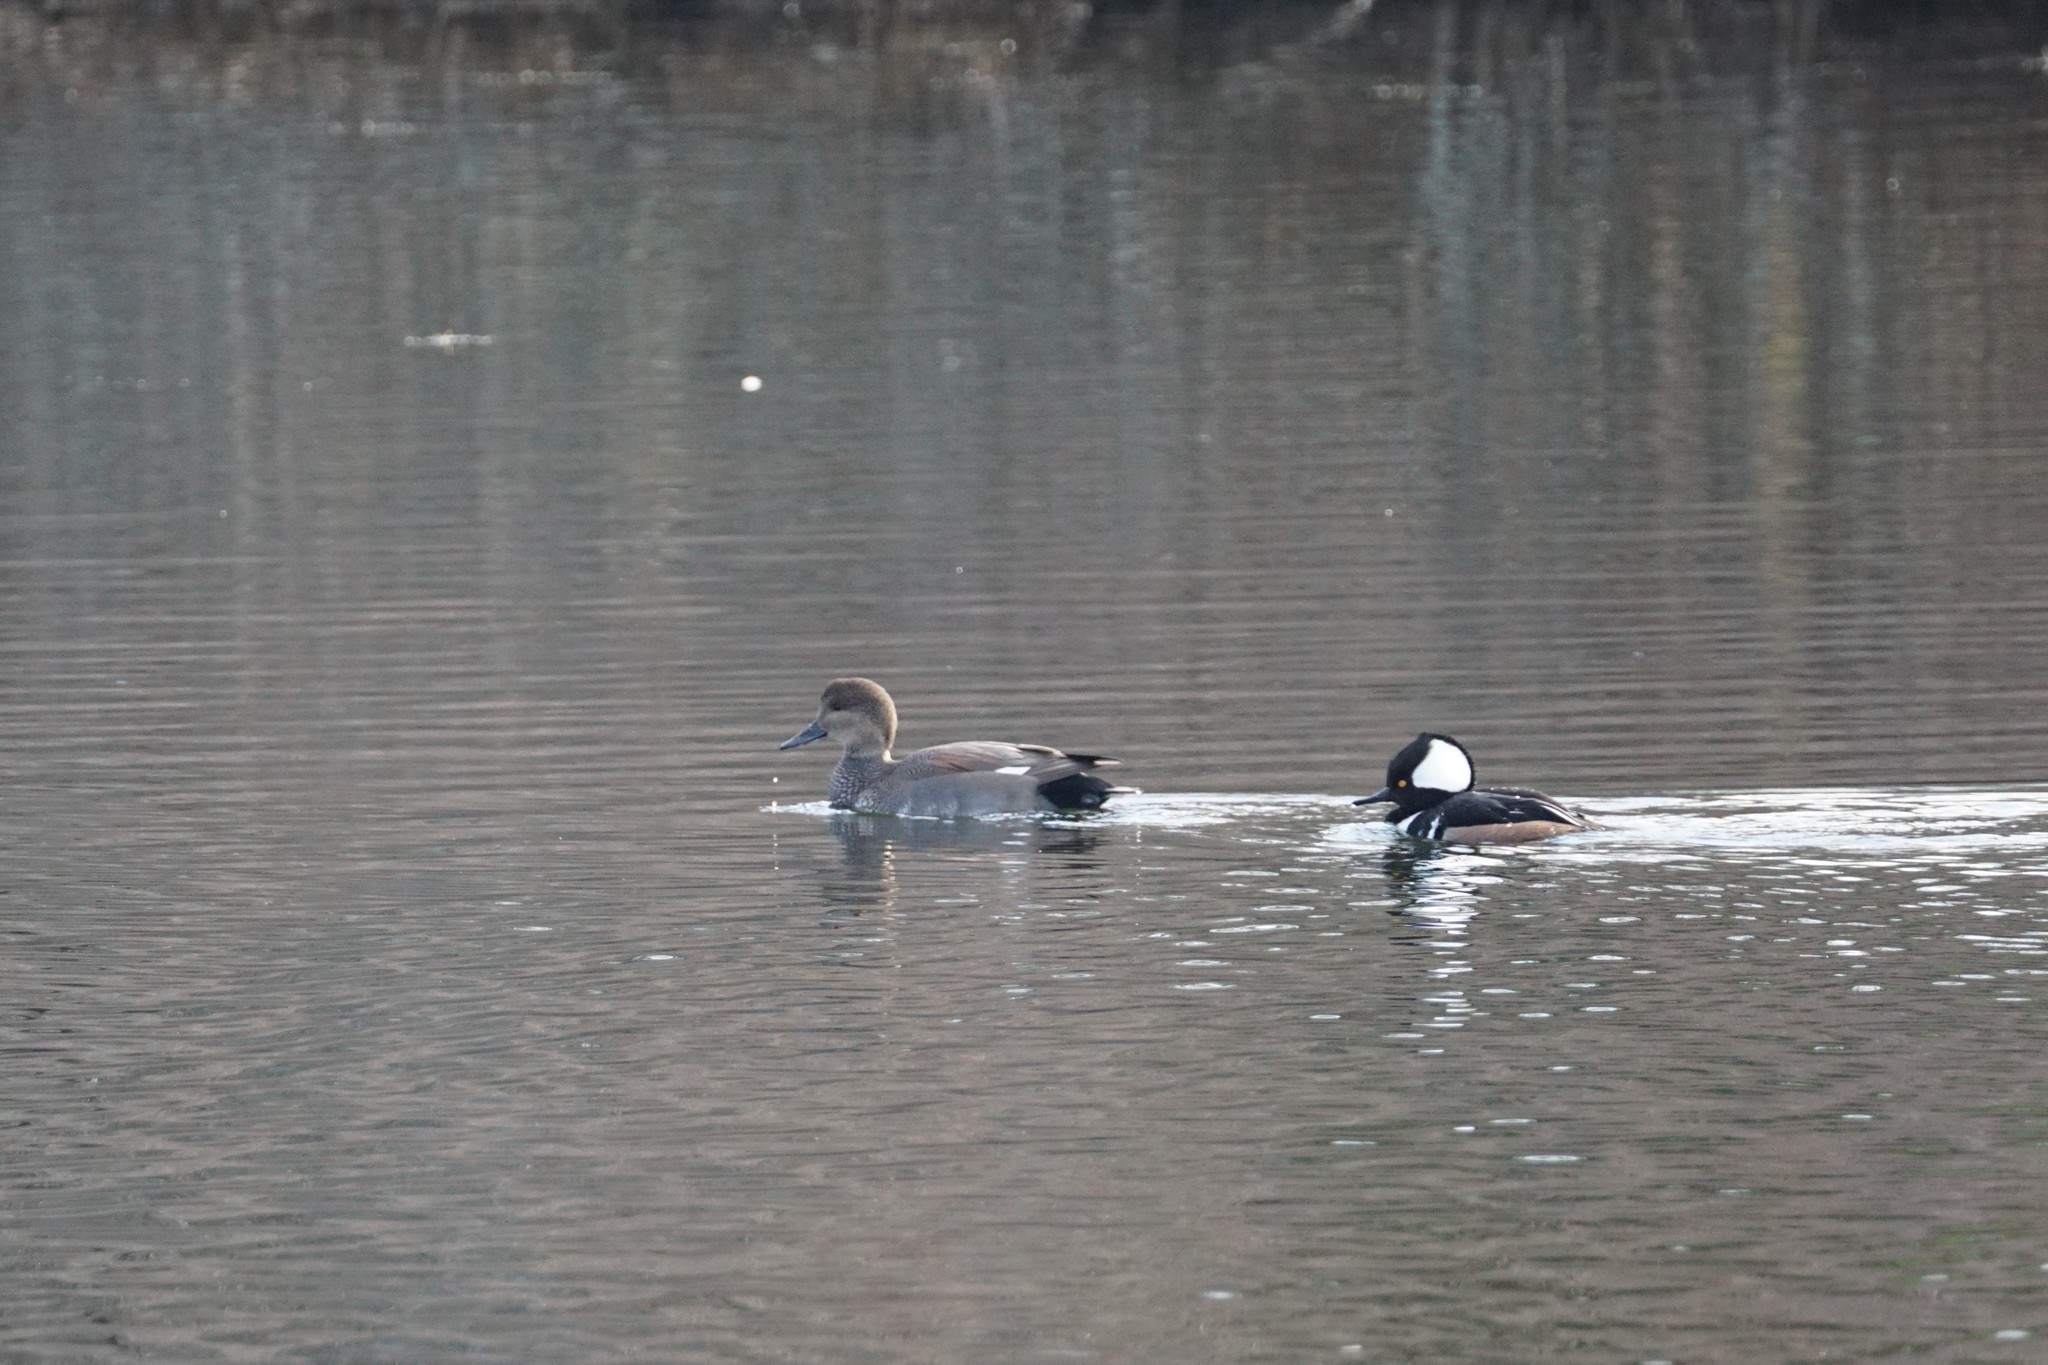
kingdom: Animalia
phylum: Chordata
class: Aves
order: Anseriformes
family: Anatidae
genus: Mareca
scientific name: Mareca strepera
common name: Gadwall
